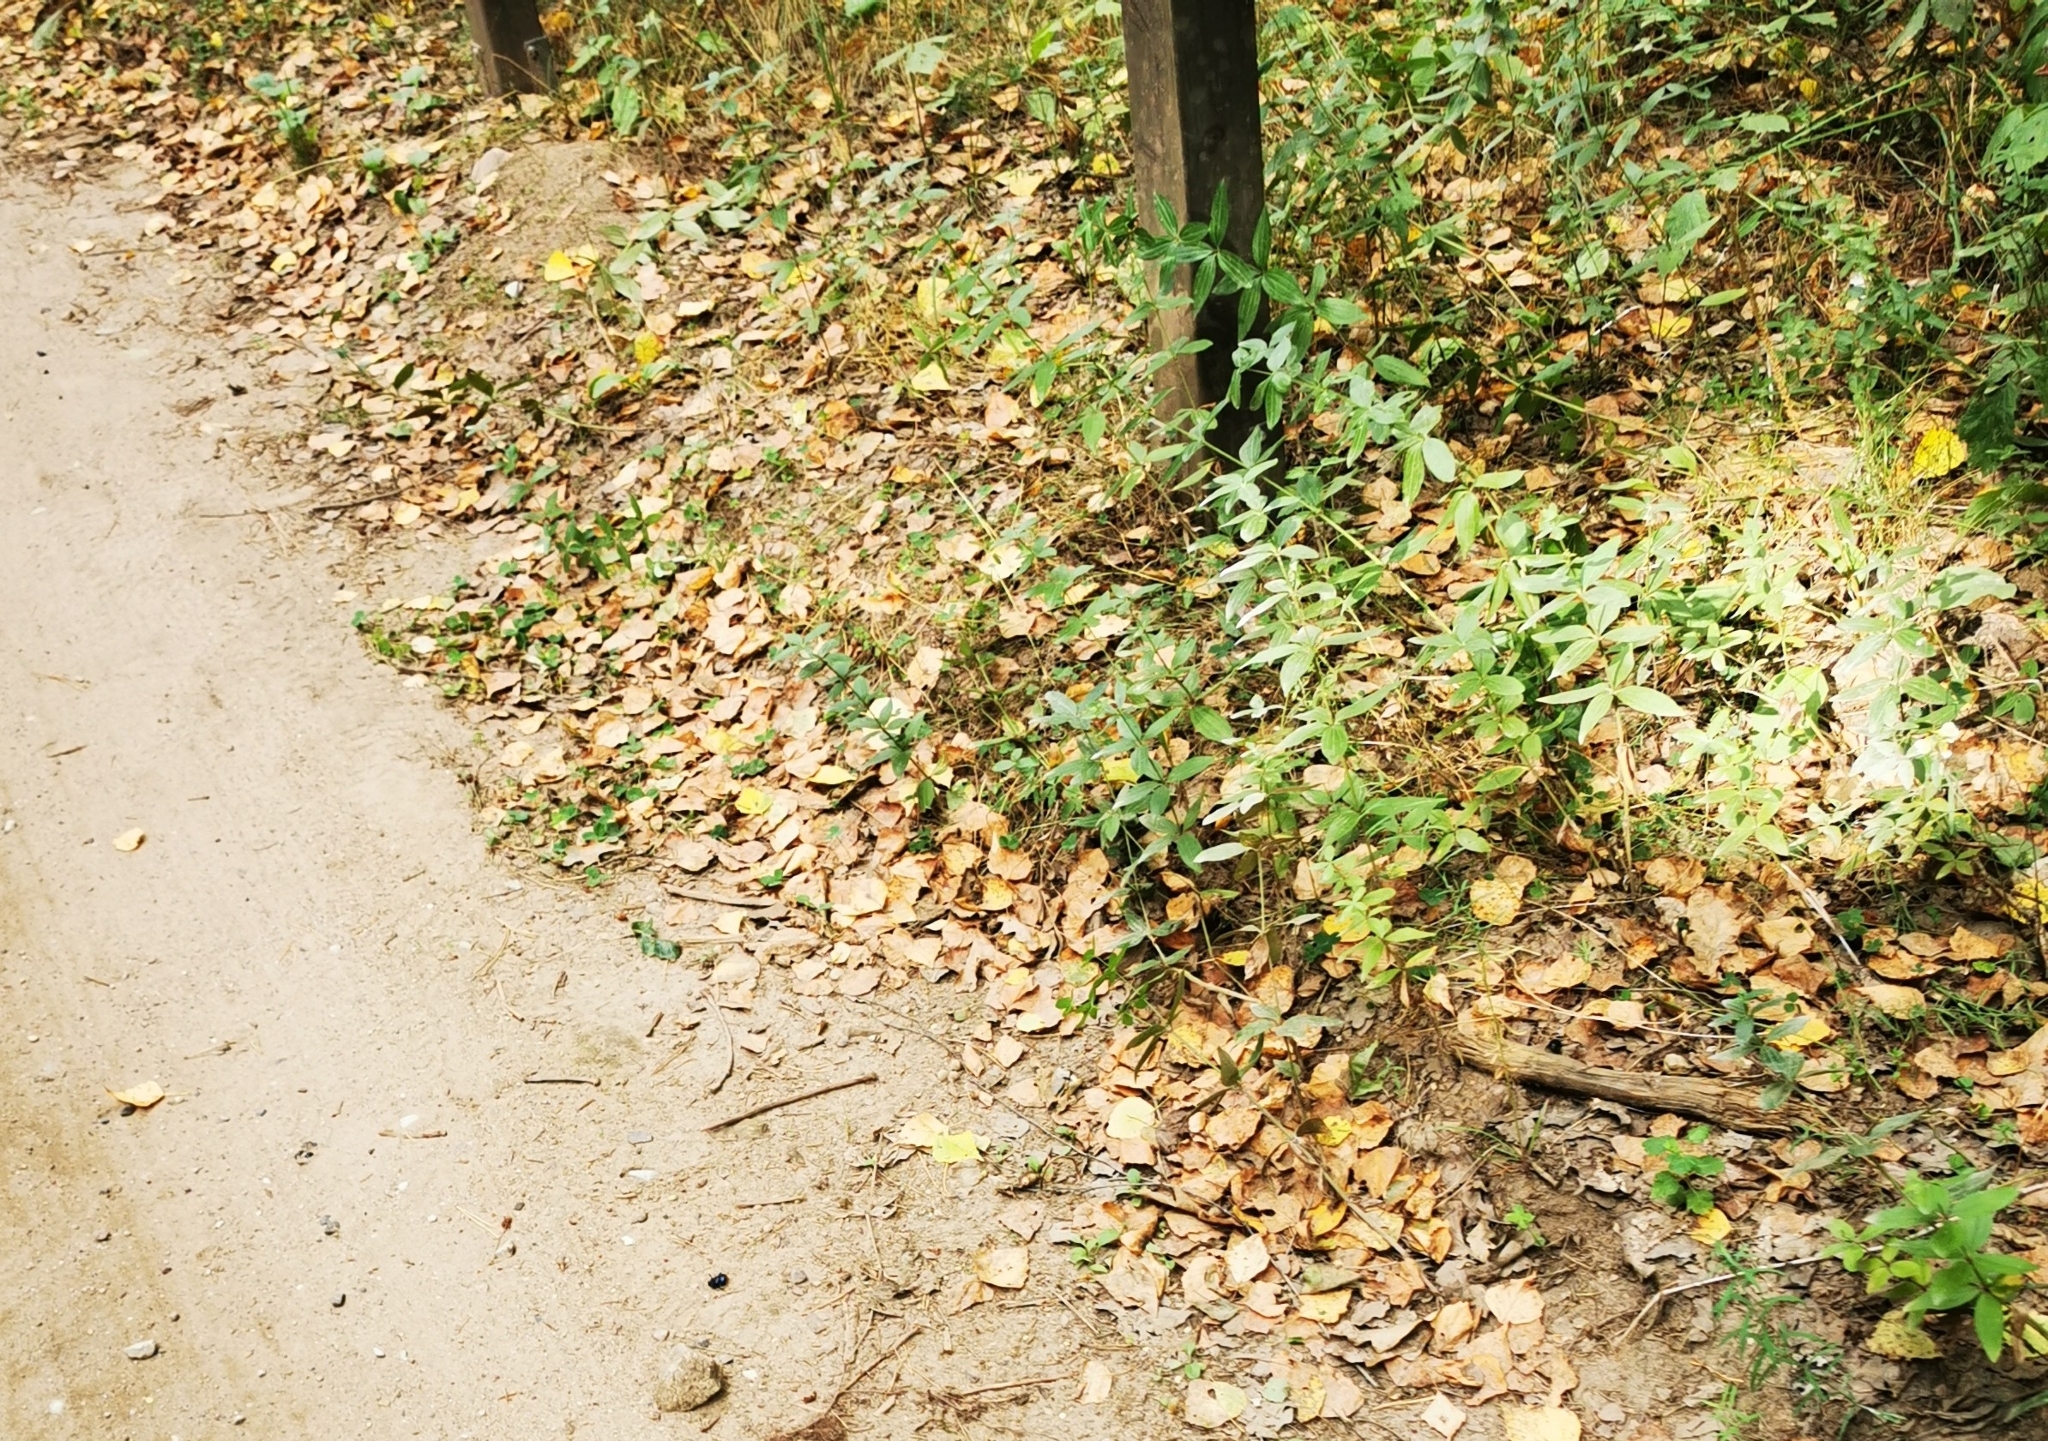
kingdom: Plantae
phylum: Tracheophyta
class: Magnoliopsida
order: Gentianales
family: Rubiaceae
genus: Galium
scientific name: Galium rubioides
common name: European bedstraw
